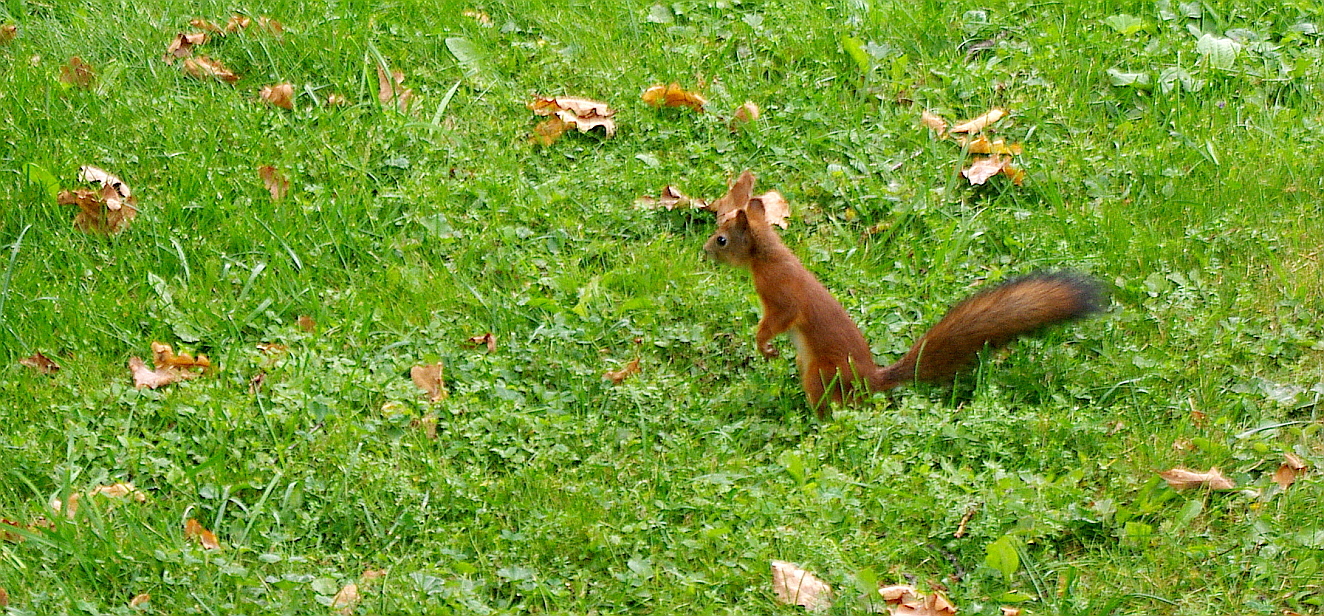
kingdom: Animalia
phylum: Chordata
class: Mammalia
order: Rodentia
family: Sciuridae
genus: Sciurus
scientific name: Sciurus vulgaris
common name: Eurasian red squirrel
